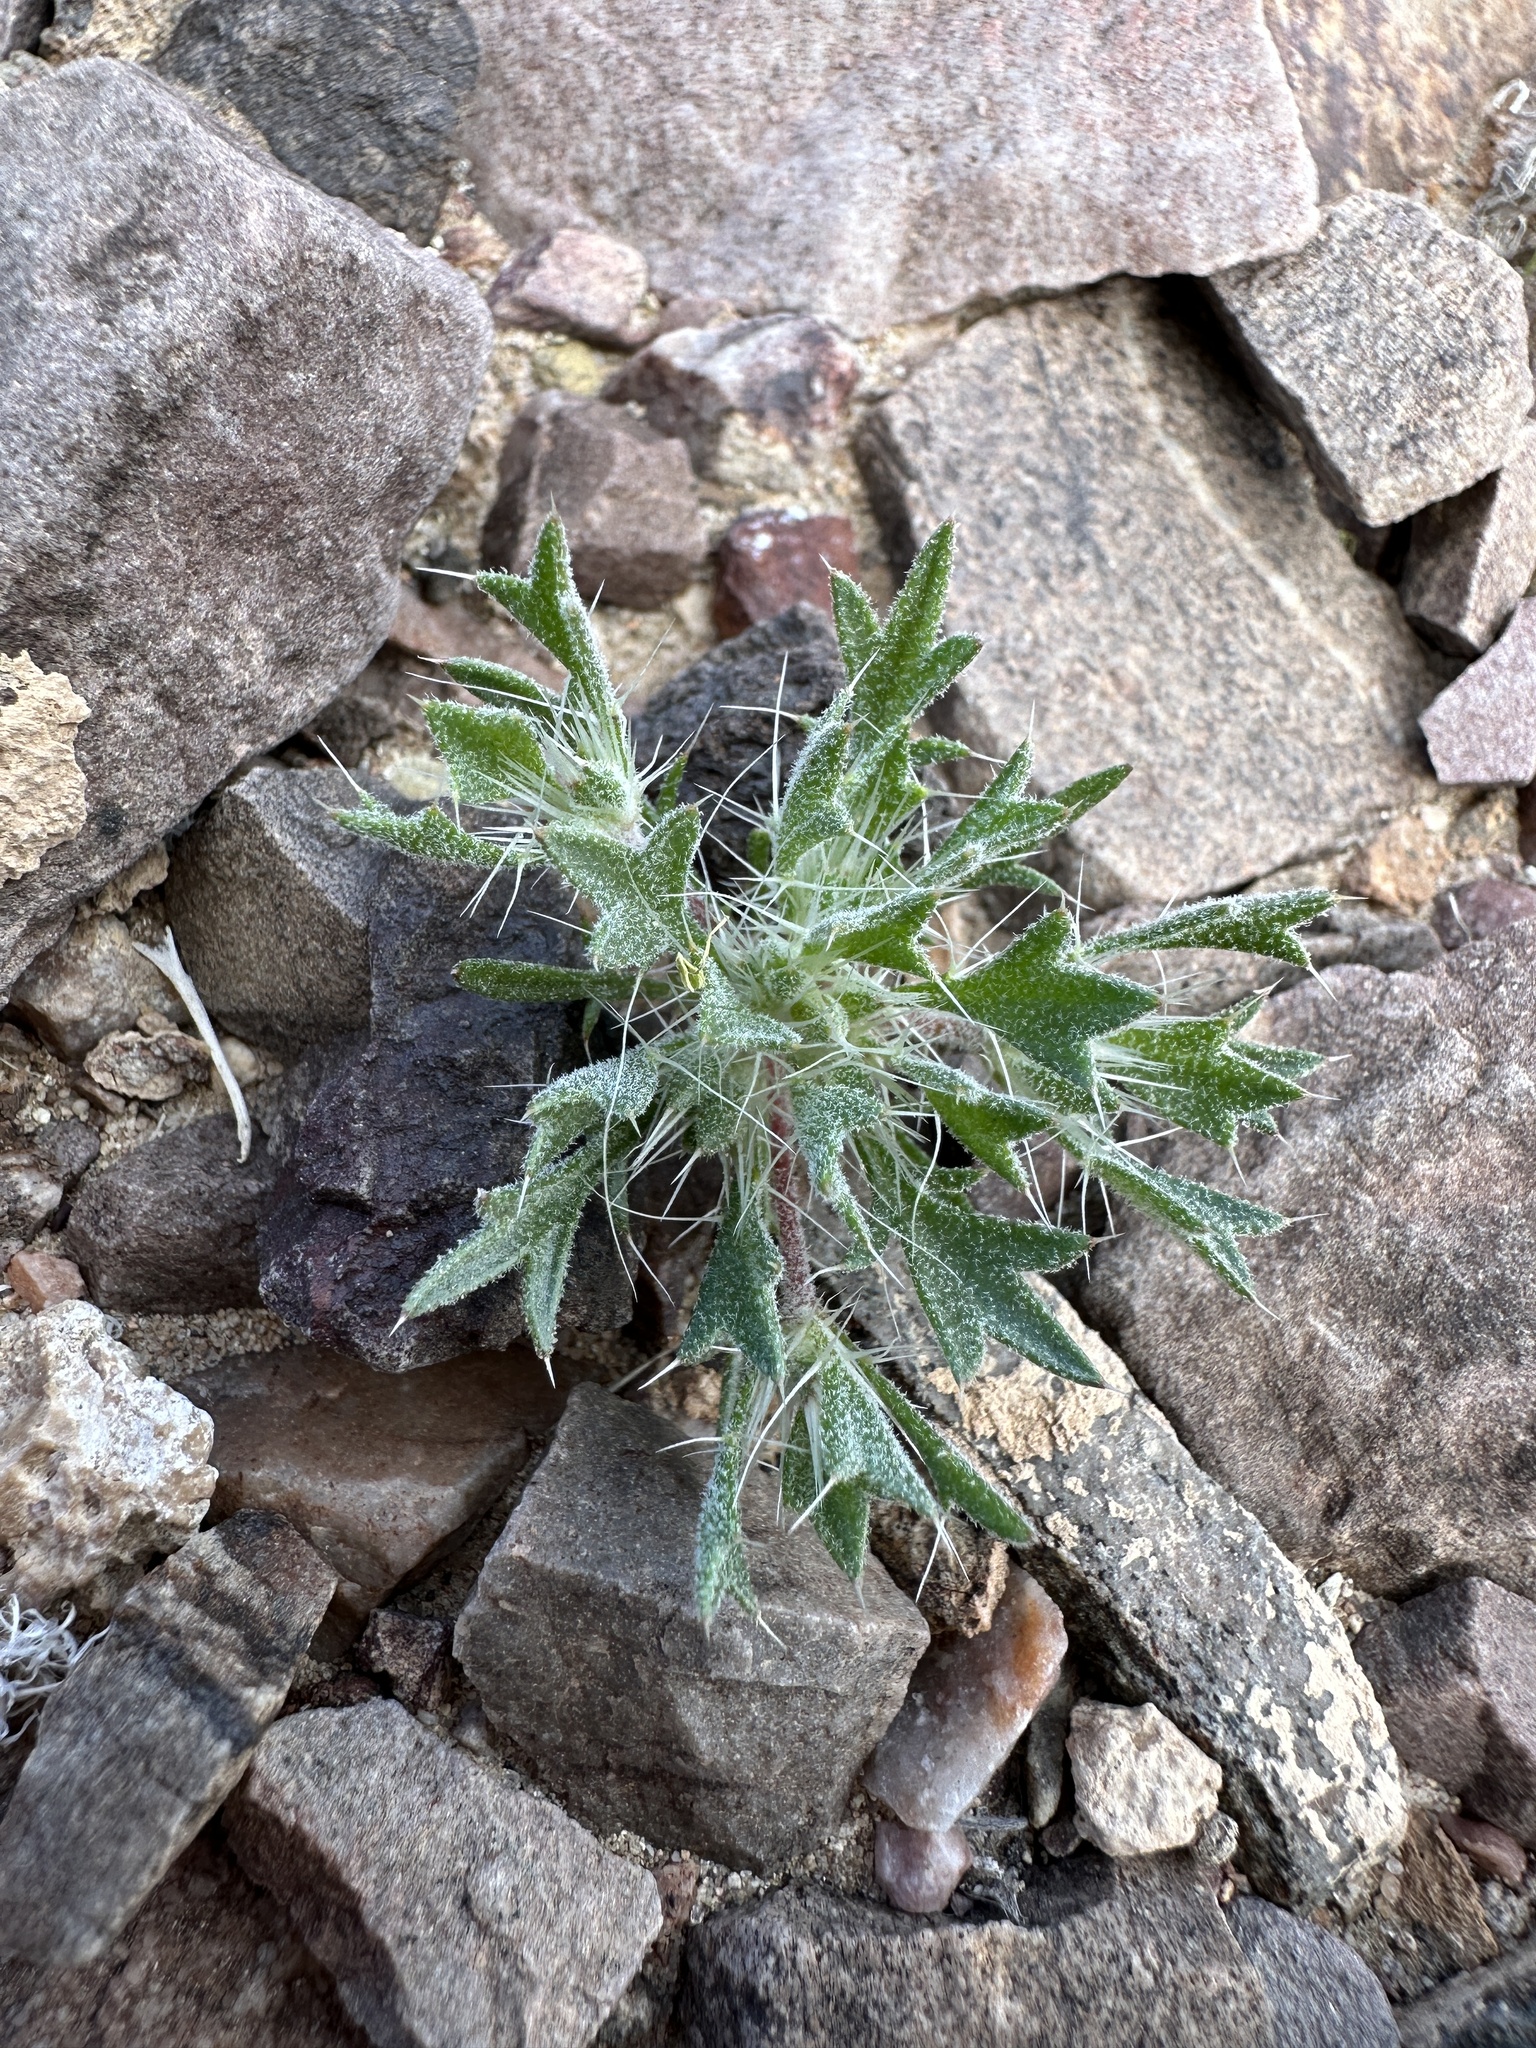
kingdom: Plantae
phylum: Tracheophyta
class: Magnoliopsida
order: Ericales
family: Polemoniaceae
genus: Langloisia
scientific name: Langloisia setosissima
